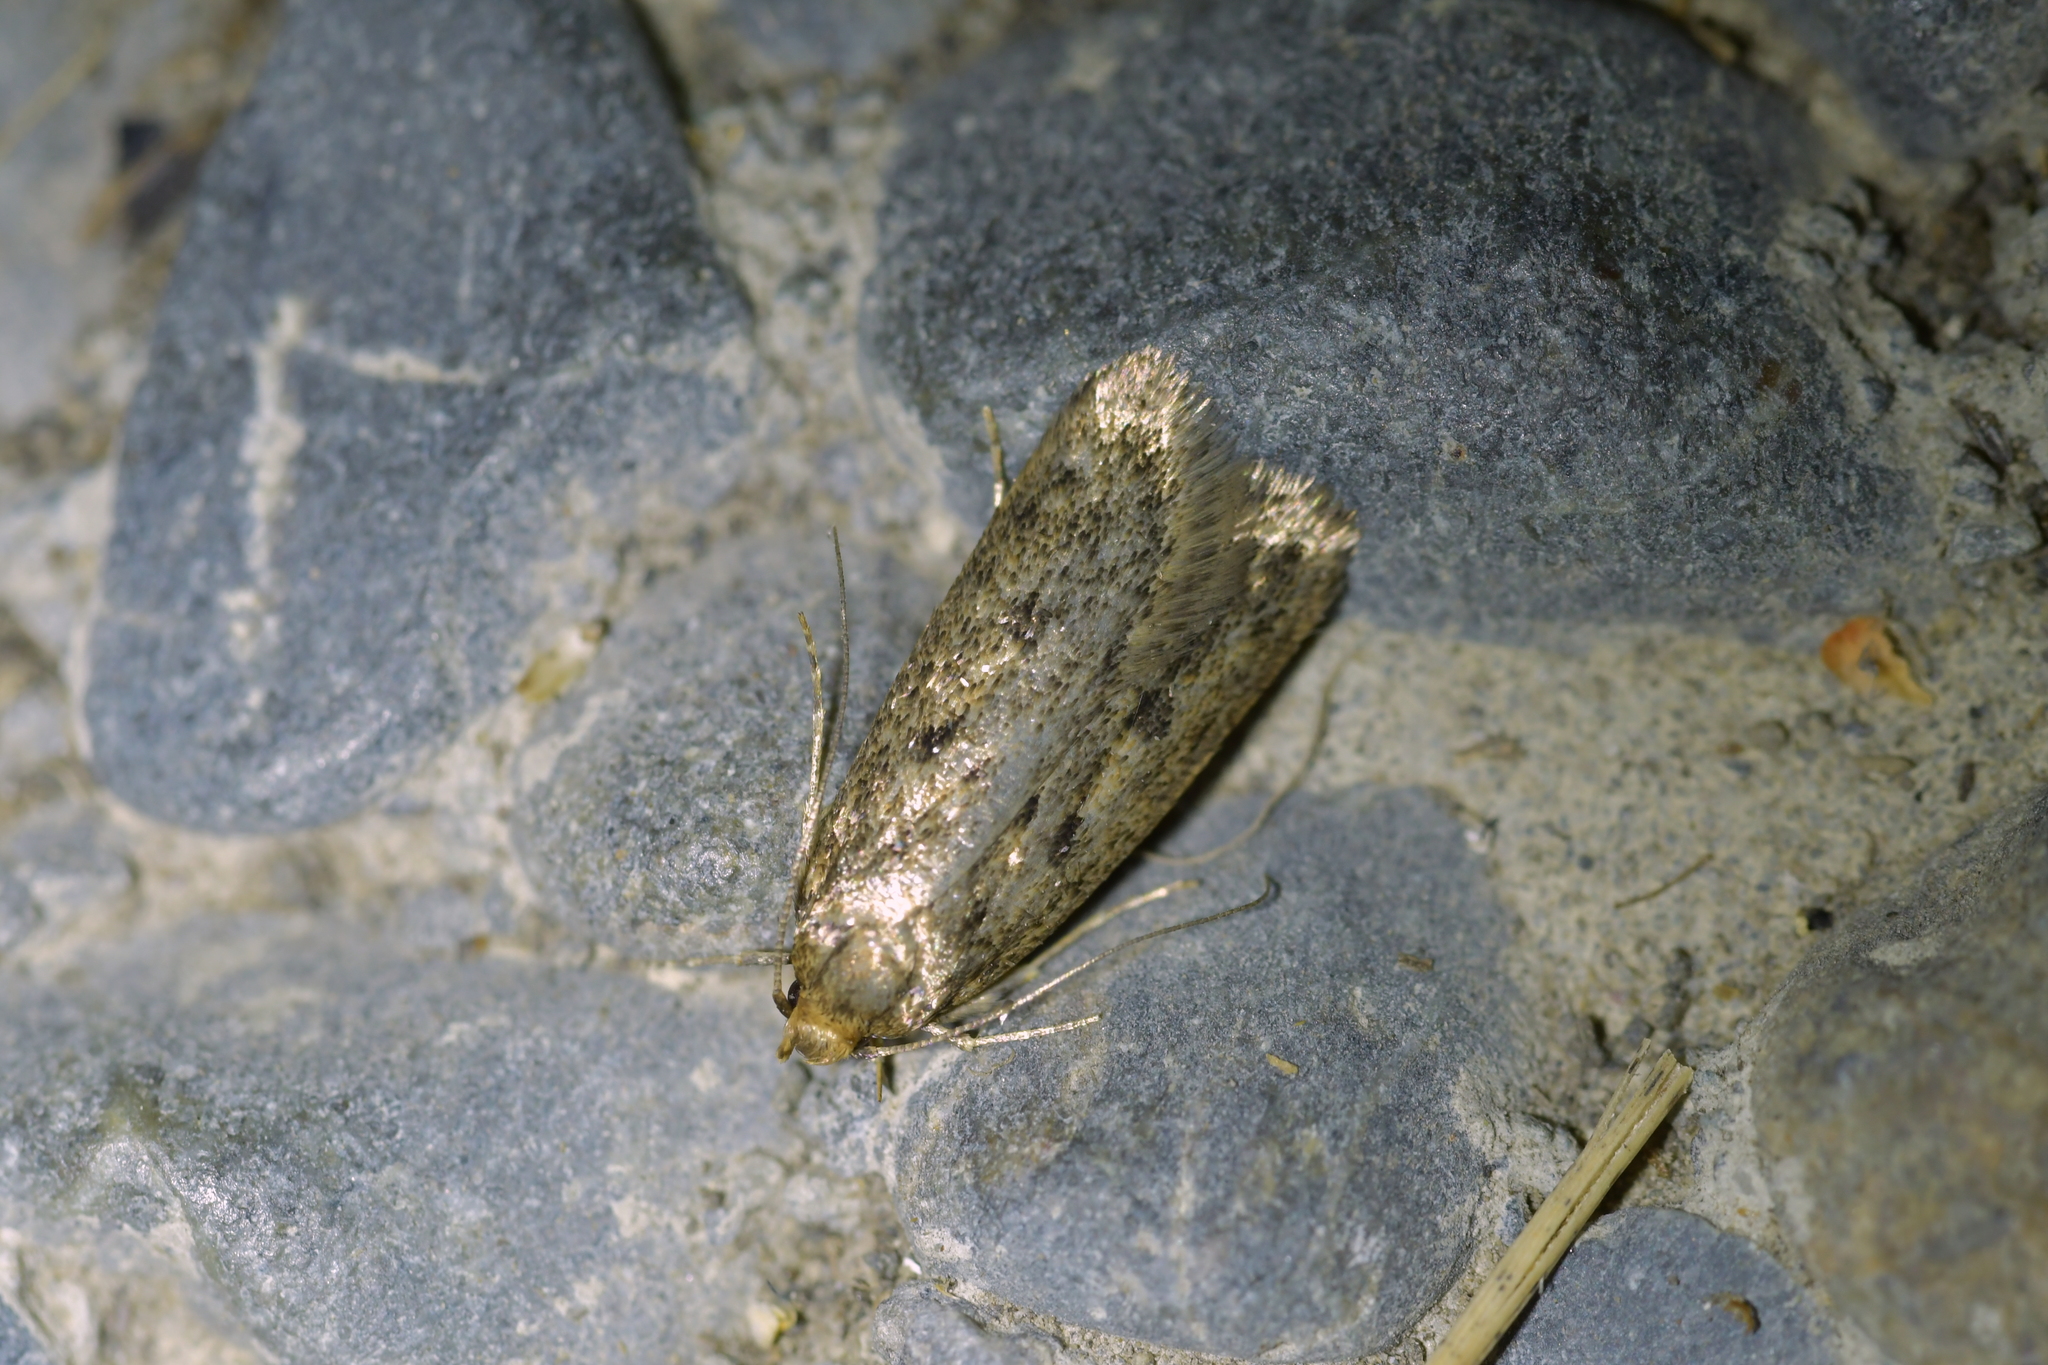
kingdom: Animalia
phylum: Arthropoda
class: Insecta
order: Lepidoptera
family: Oecophoridae
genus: Hofmannophila
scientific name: Hofmannophila pseudospretella
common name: Brown house moth
